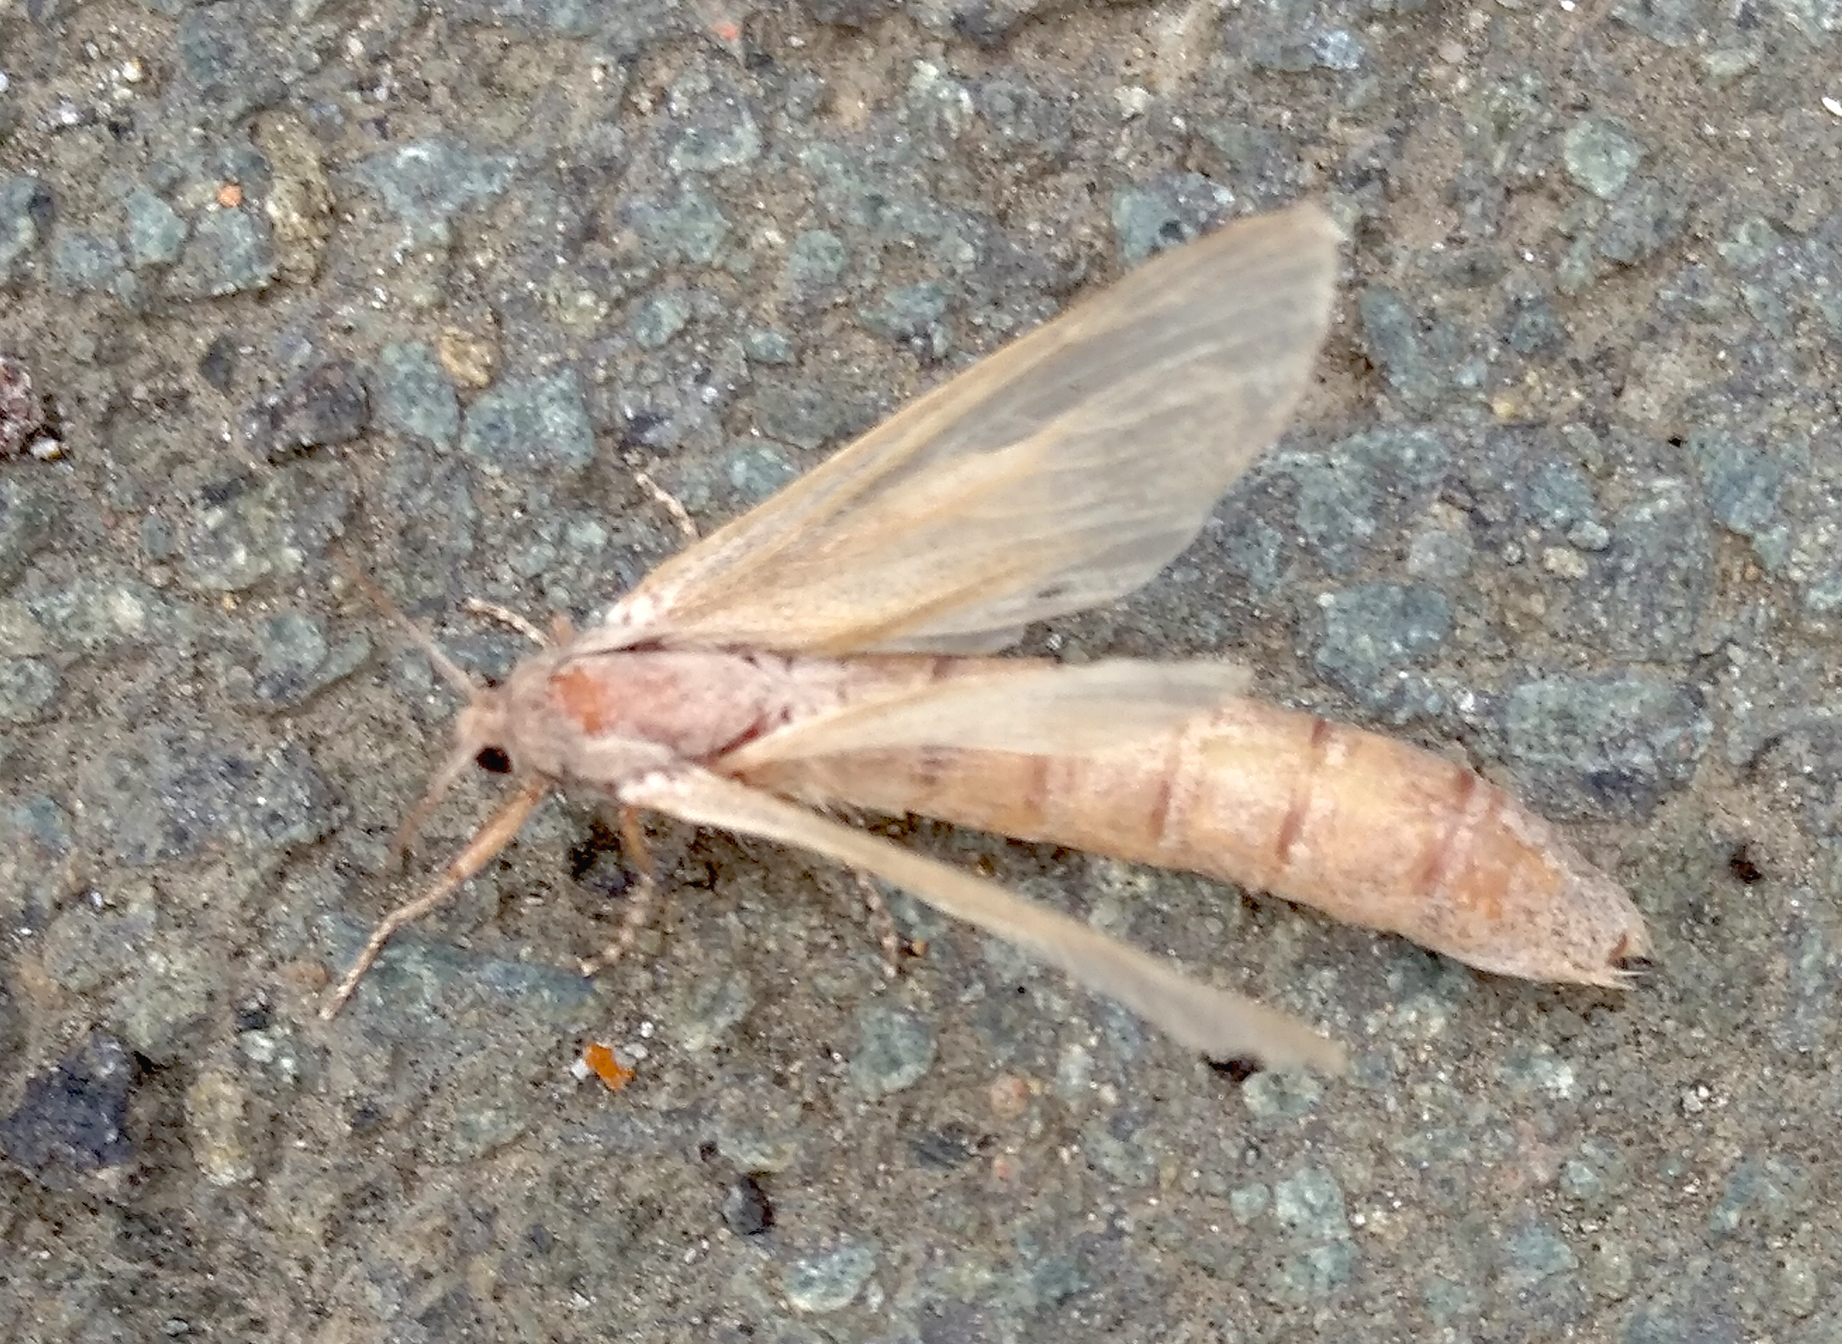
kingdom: Animalia
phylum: Arthropoda
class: Insecta
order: Lepidoptera
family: Cossidae
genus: Phragmataecia
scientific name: Phragmataecia castaneae
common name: Reed leopard
